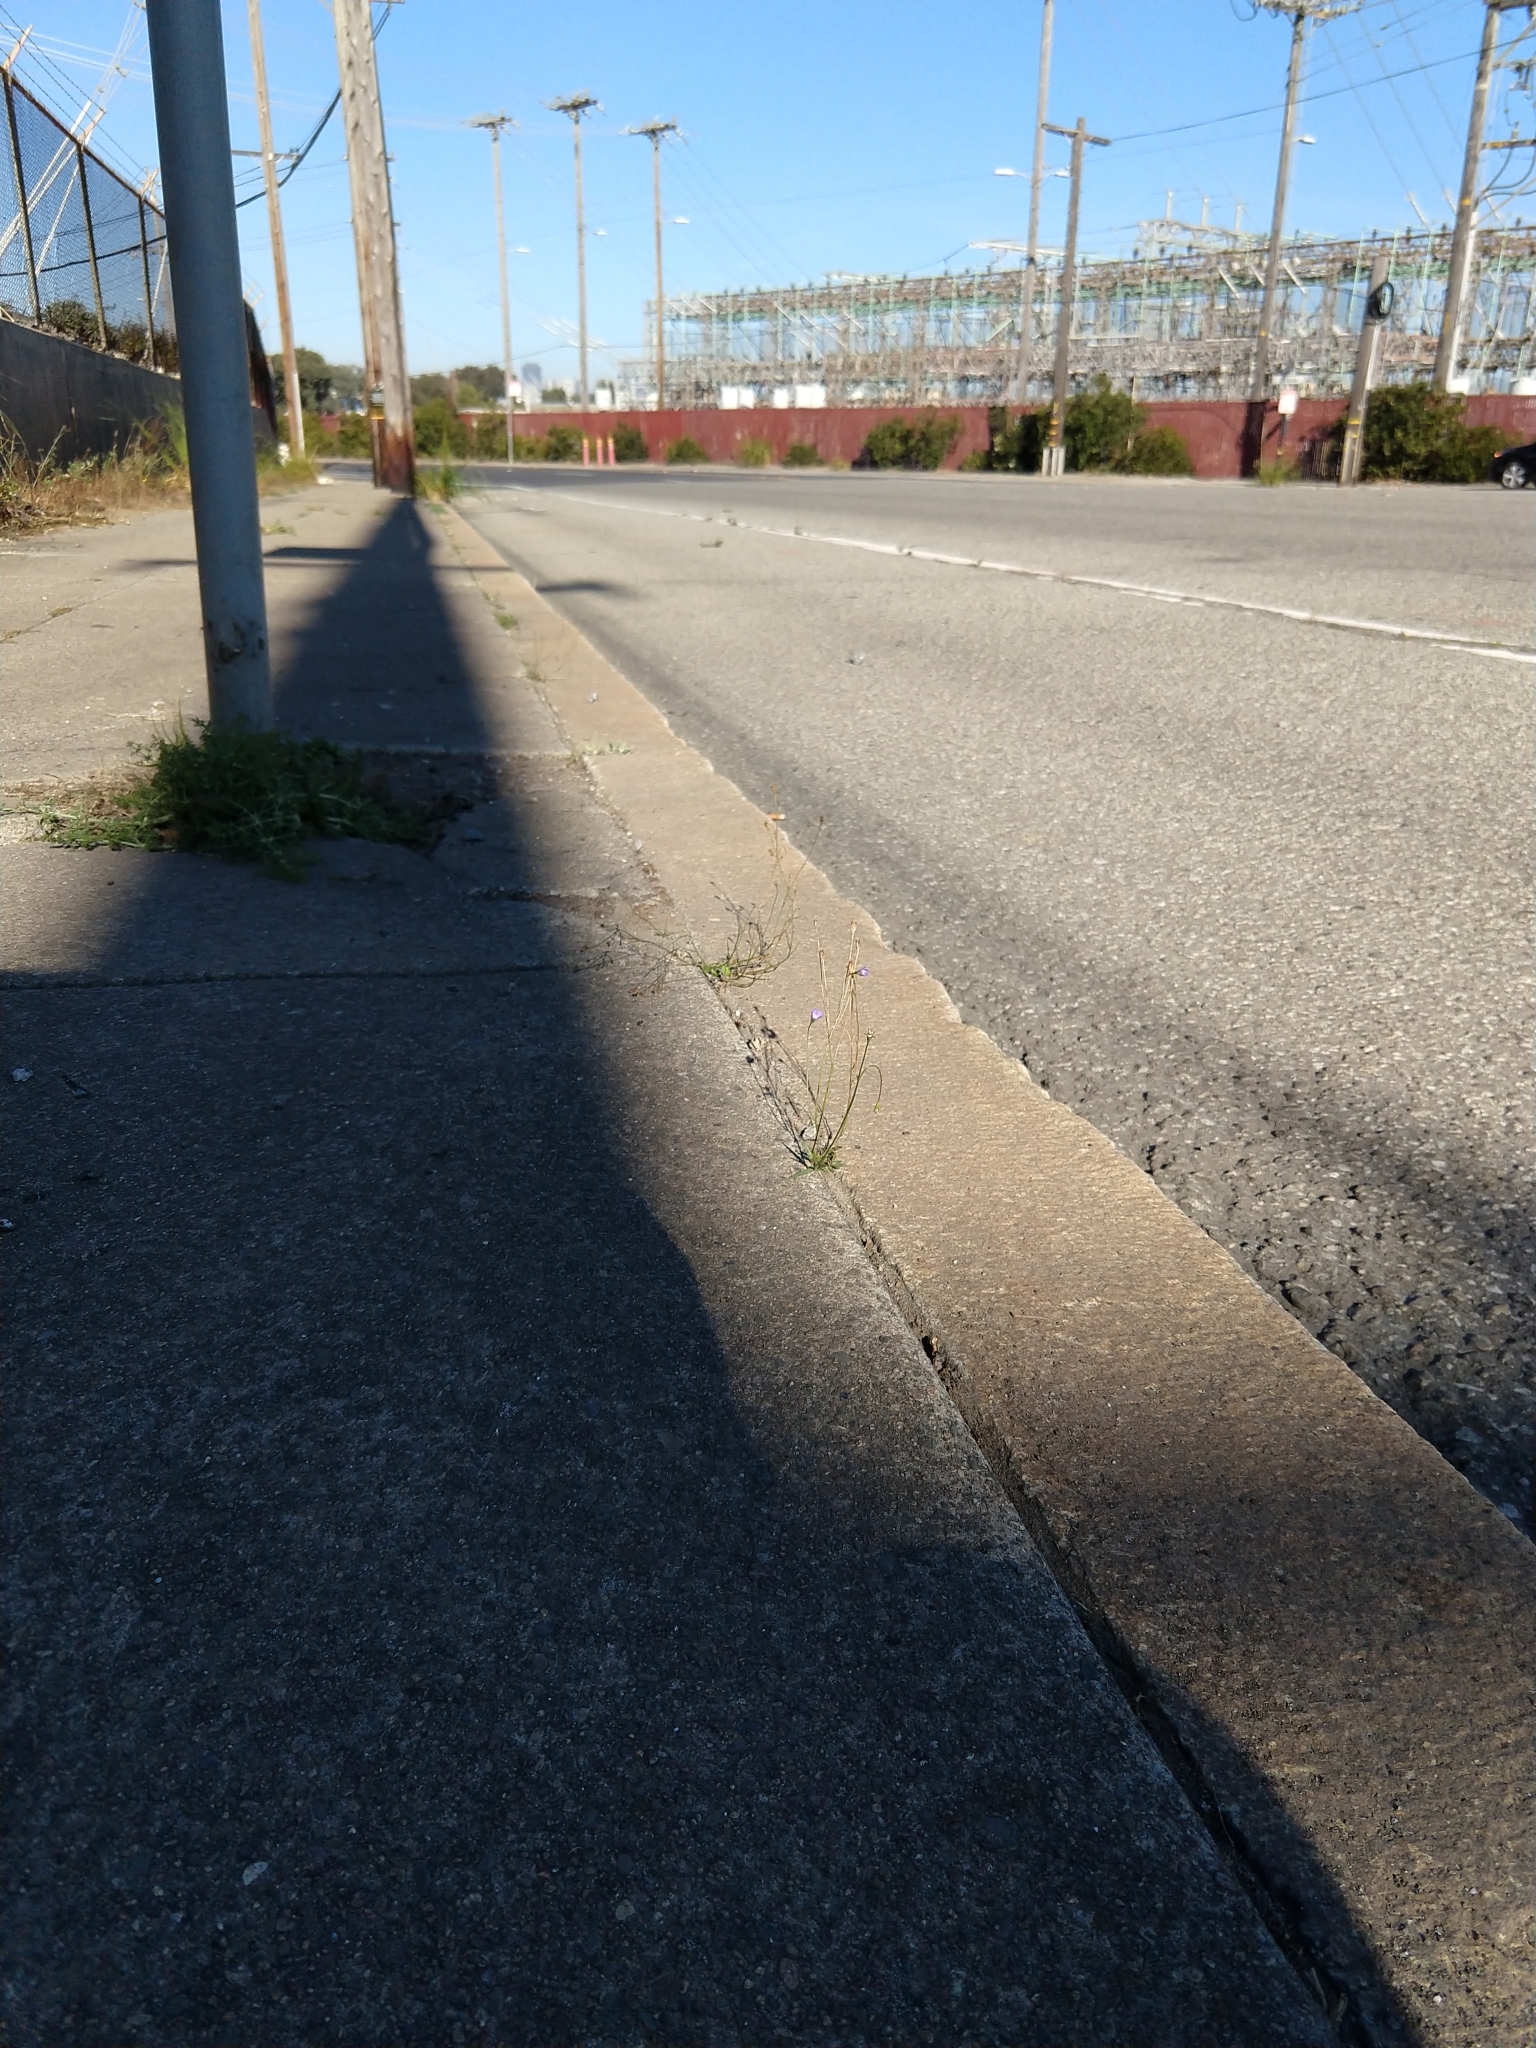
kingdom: Plantae
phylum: Tracheophyta
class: Magnoliopsida
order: Asterales
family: Campanulaceae
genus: Wahlenbergia
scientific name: Wahlenbergia marginata
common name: Southern rockbell
